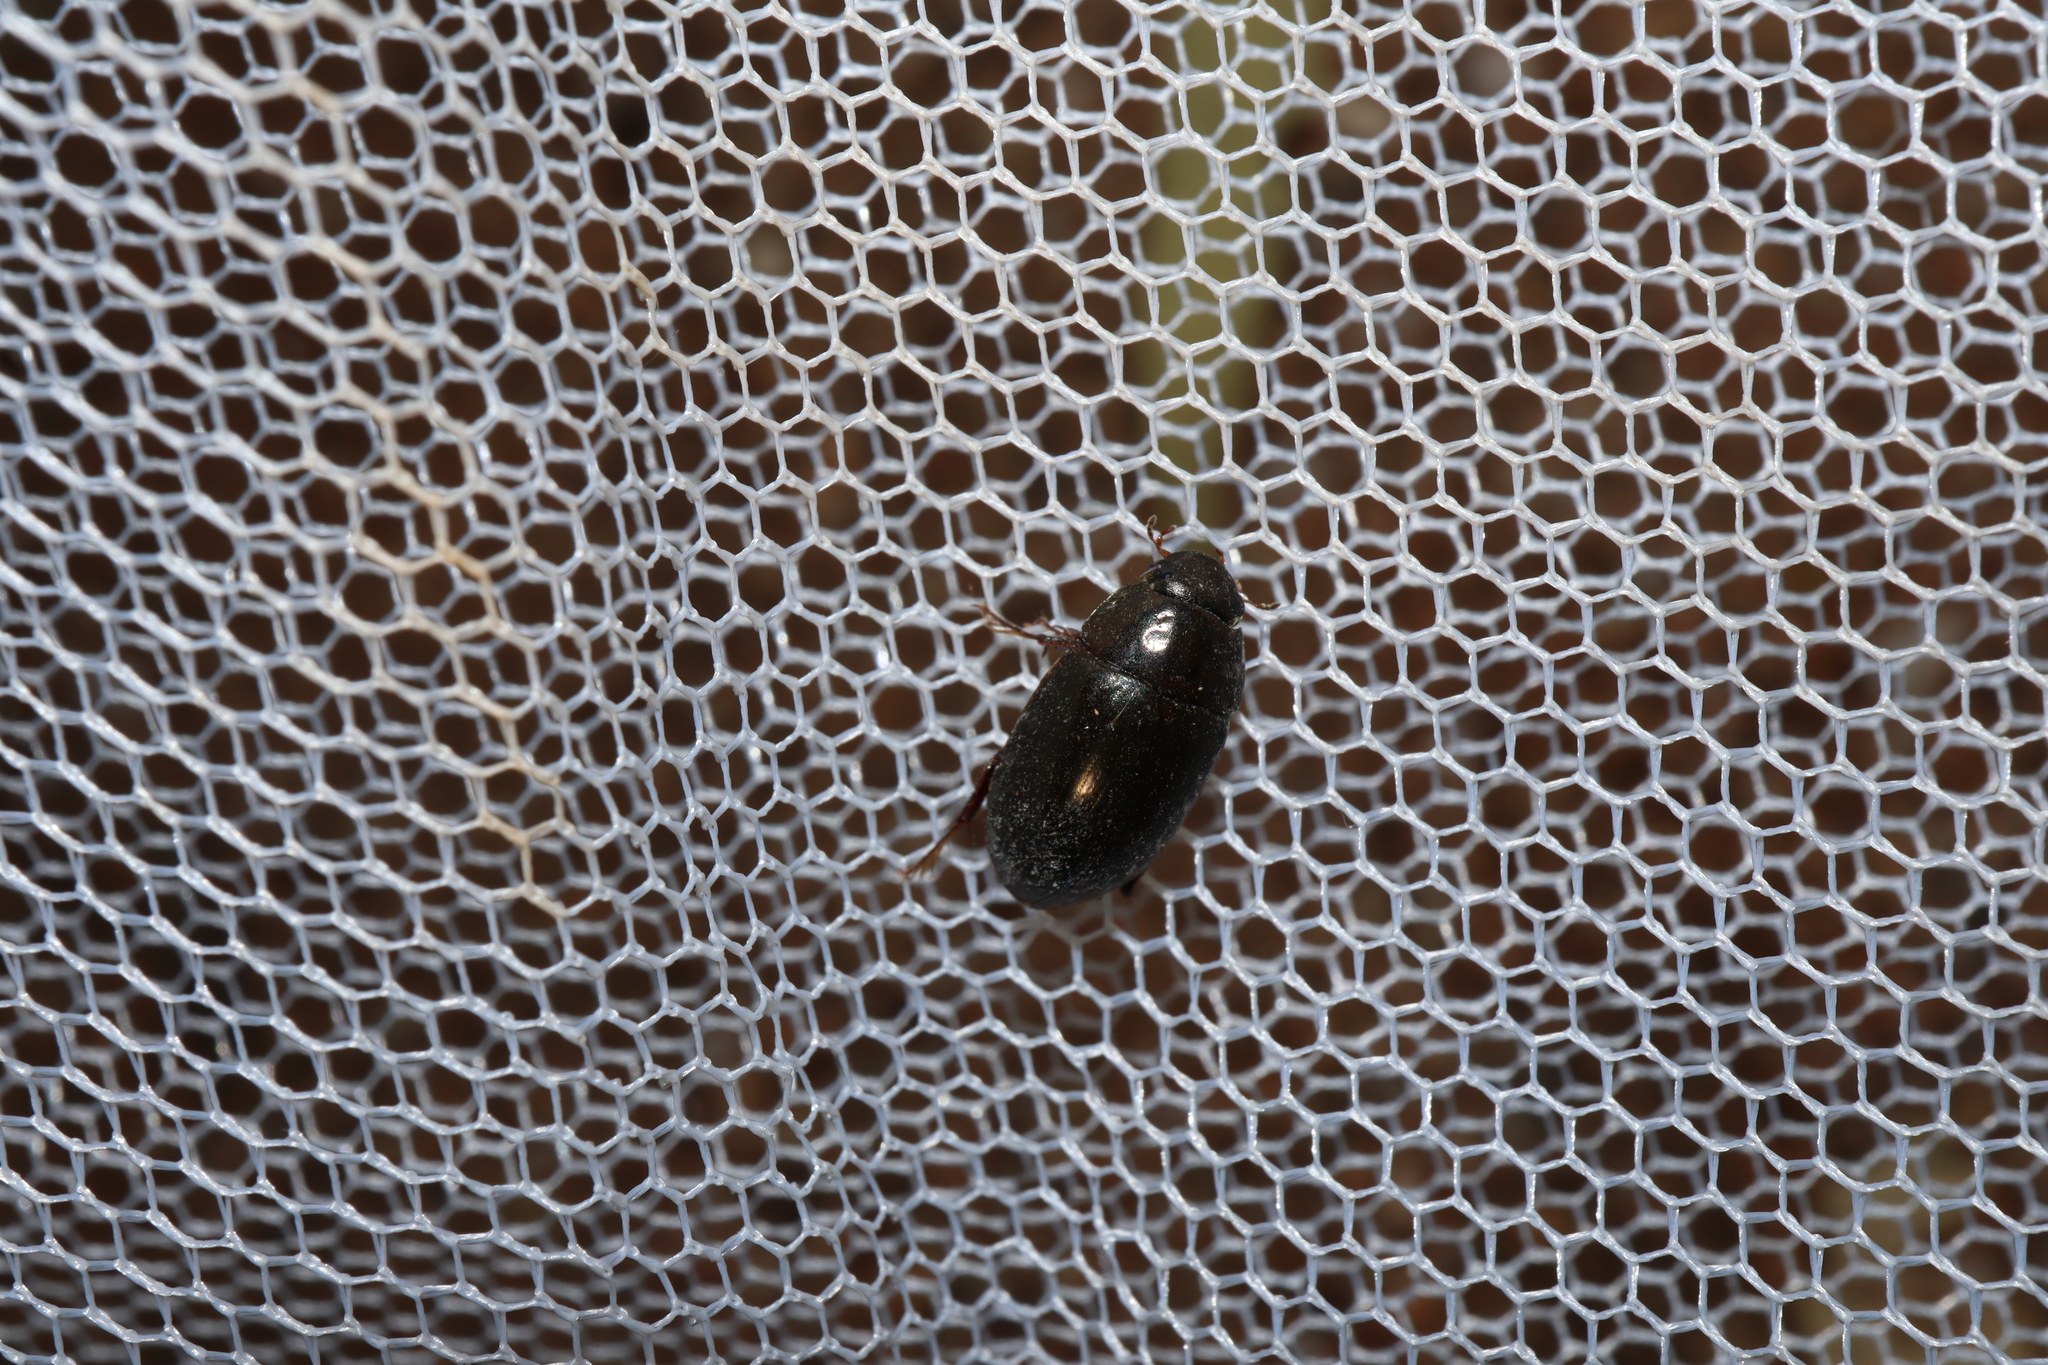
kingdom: Animalia
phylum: Arthropoda
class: Insecta
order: Coleoptera
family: Hydrophilidae
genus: Limnoxenus
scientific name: Limnoxenus zealandicus
